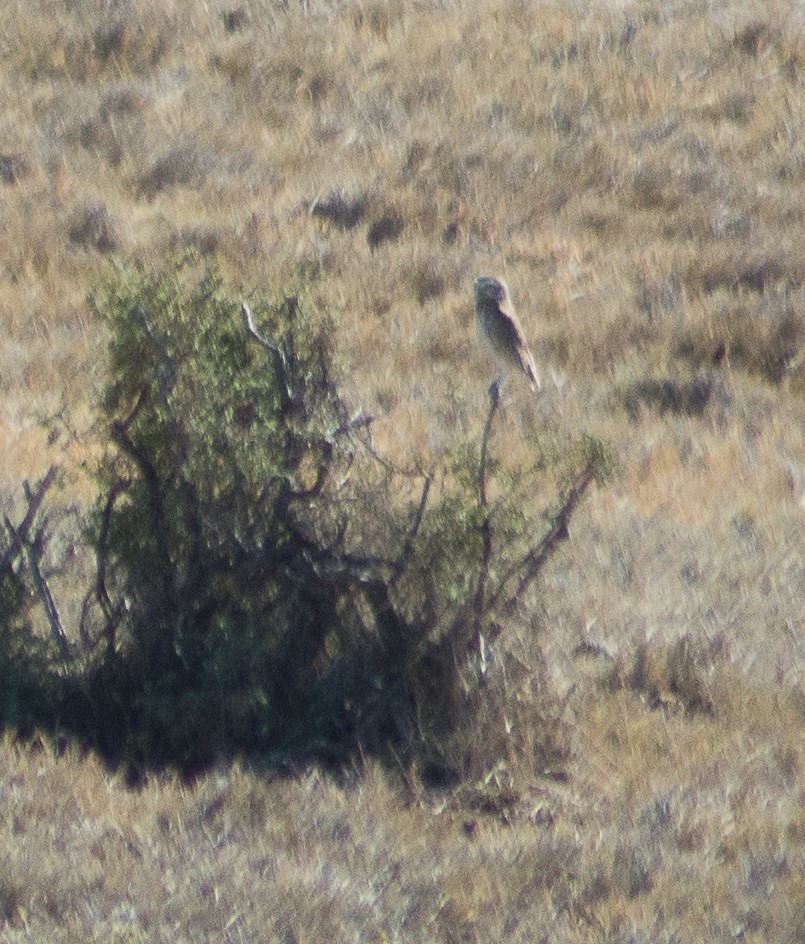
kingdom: Animalia
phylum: Chordata
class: Aves
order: Strigiformes
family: Strigidae
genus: Athene
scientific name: Athene cunicularia
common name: Burrowing owl
